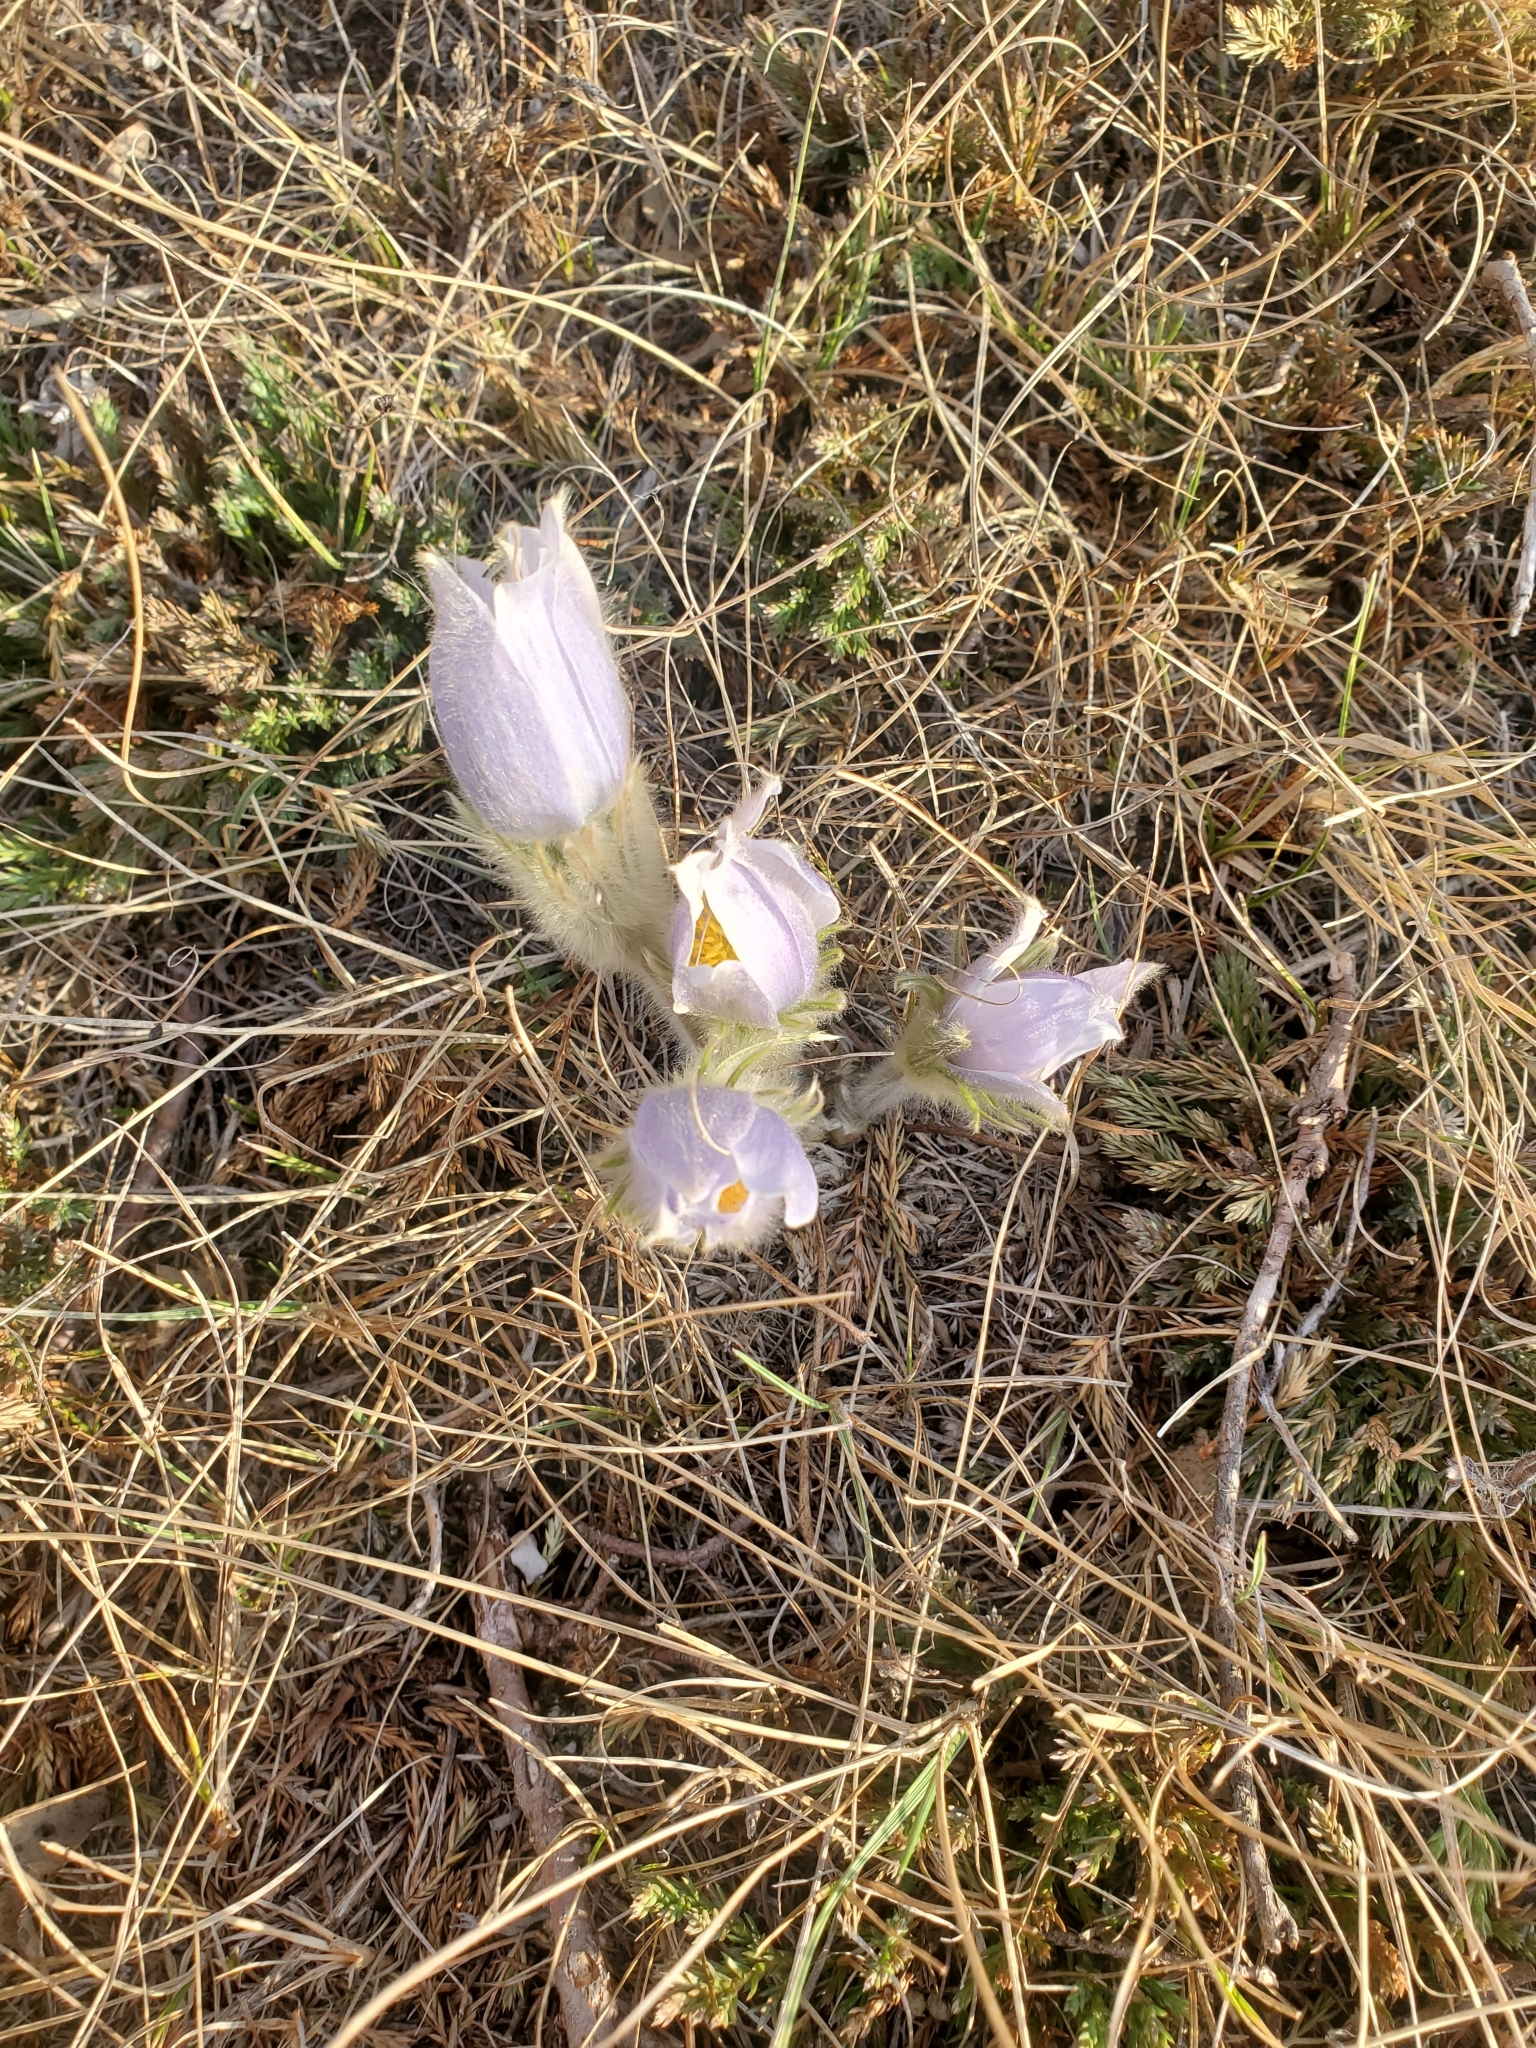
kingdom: Plantae
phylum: Tracheophyta
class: Magnoliopsida
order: Ranunculales
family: Ranunculaceae
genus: Pulsatilla
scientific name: Pulsatilla nuttalliana
